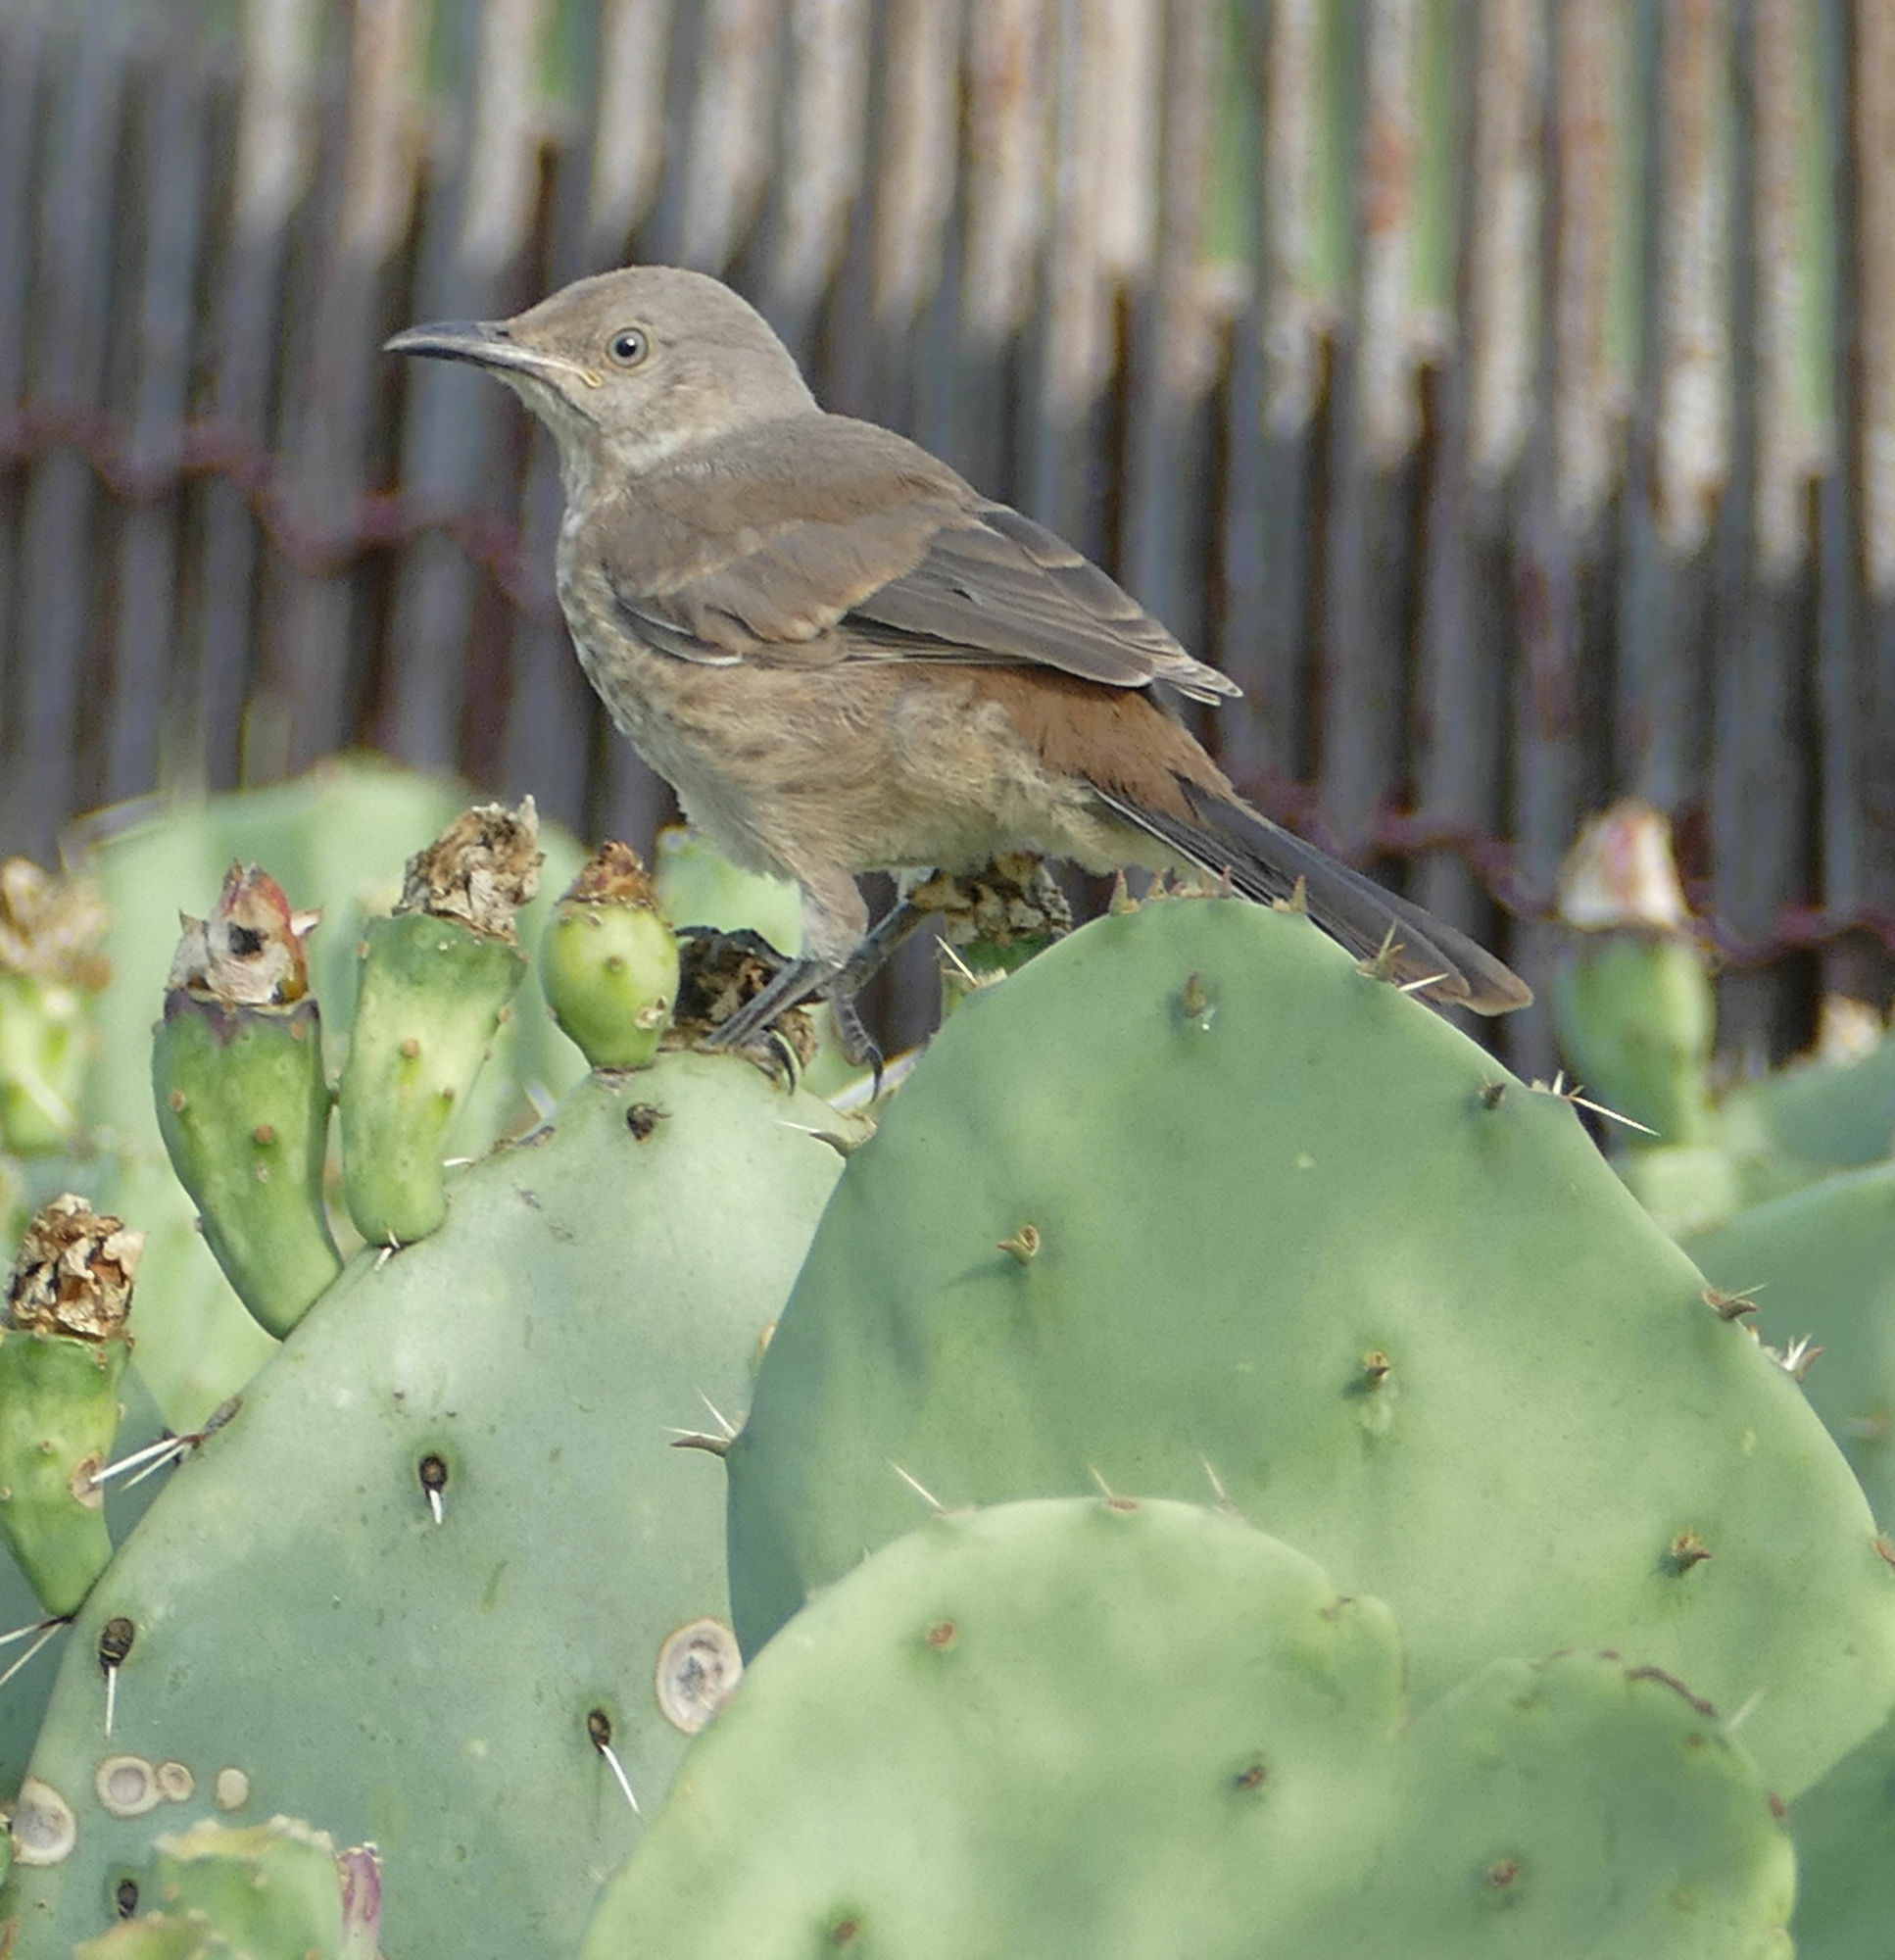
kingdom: Animalia
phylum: Chordata
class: Aves
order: Passeriformes
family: Mimidae
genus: Toxostoma
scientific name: Toxostoma curvirostre
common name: Curve-billed thrasher
